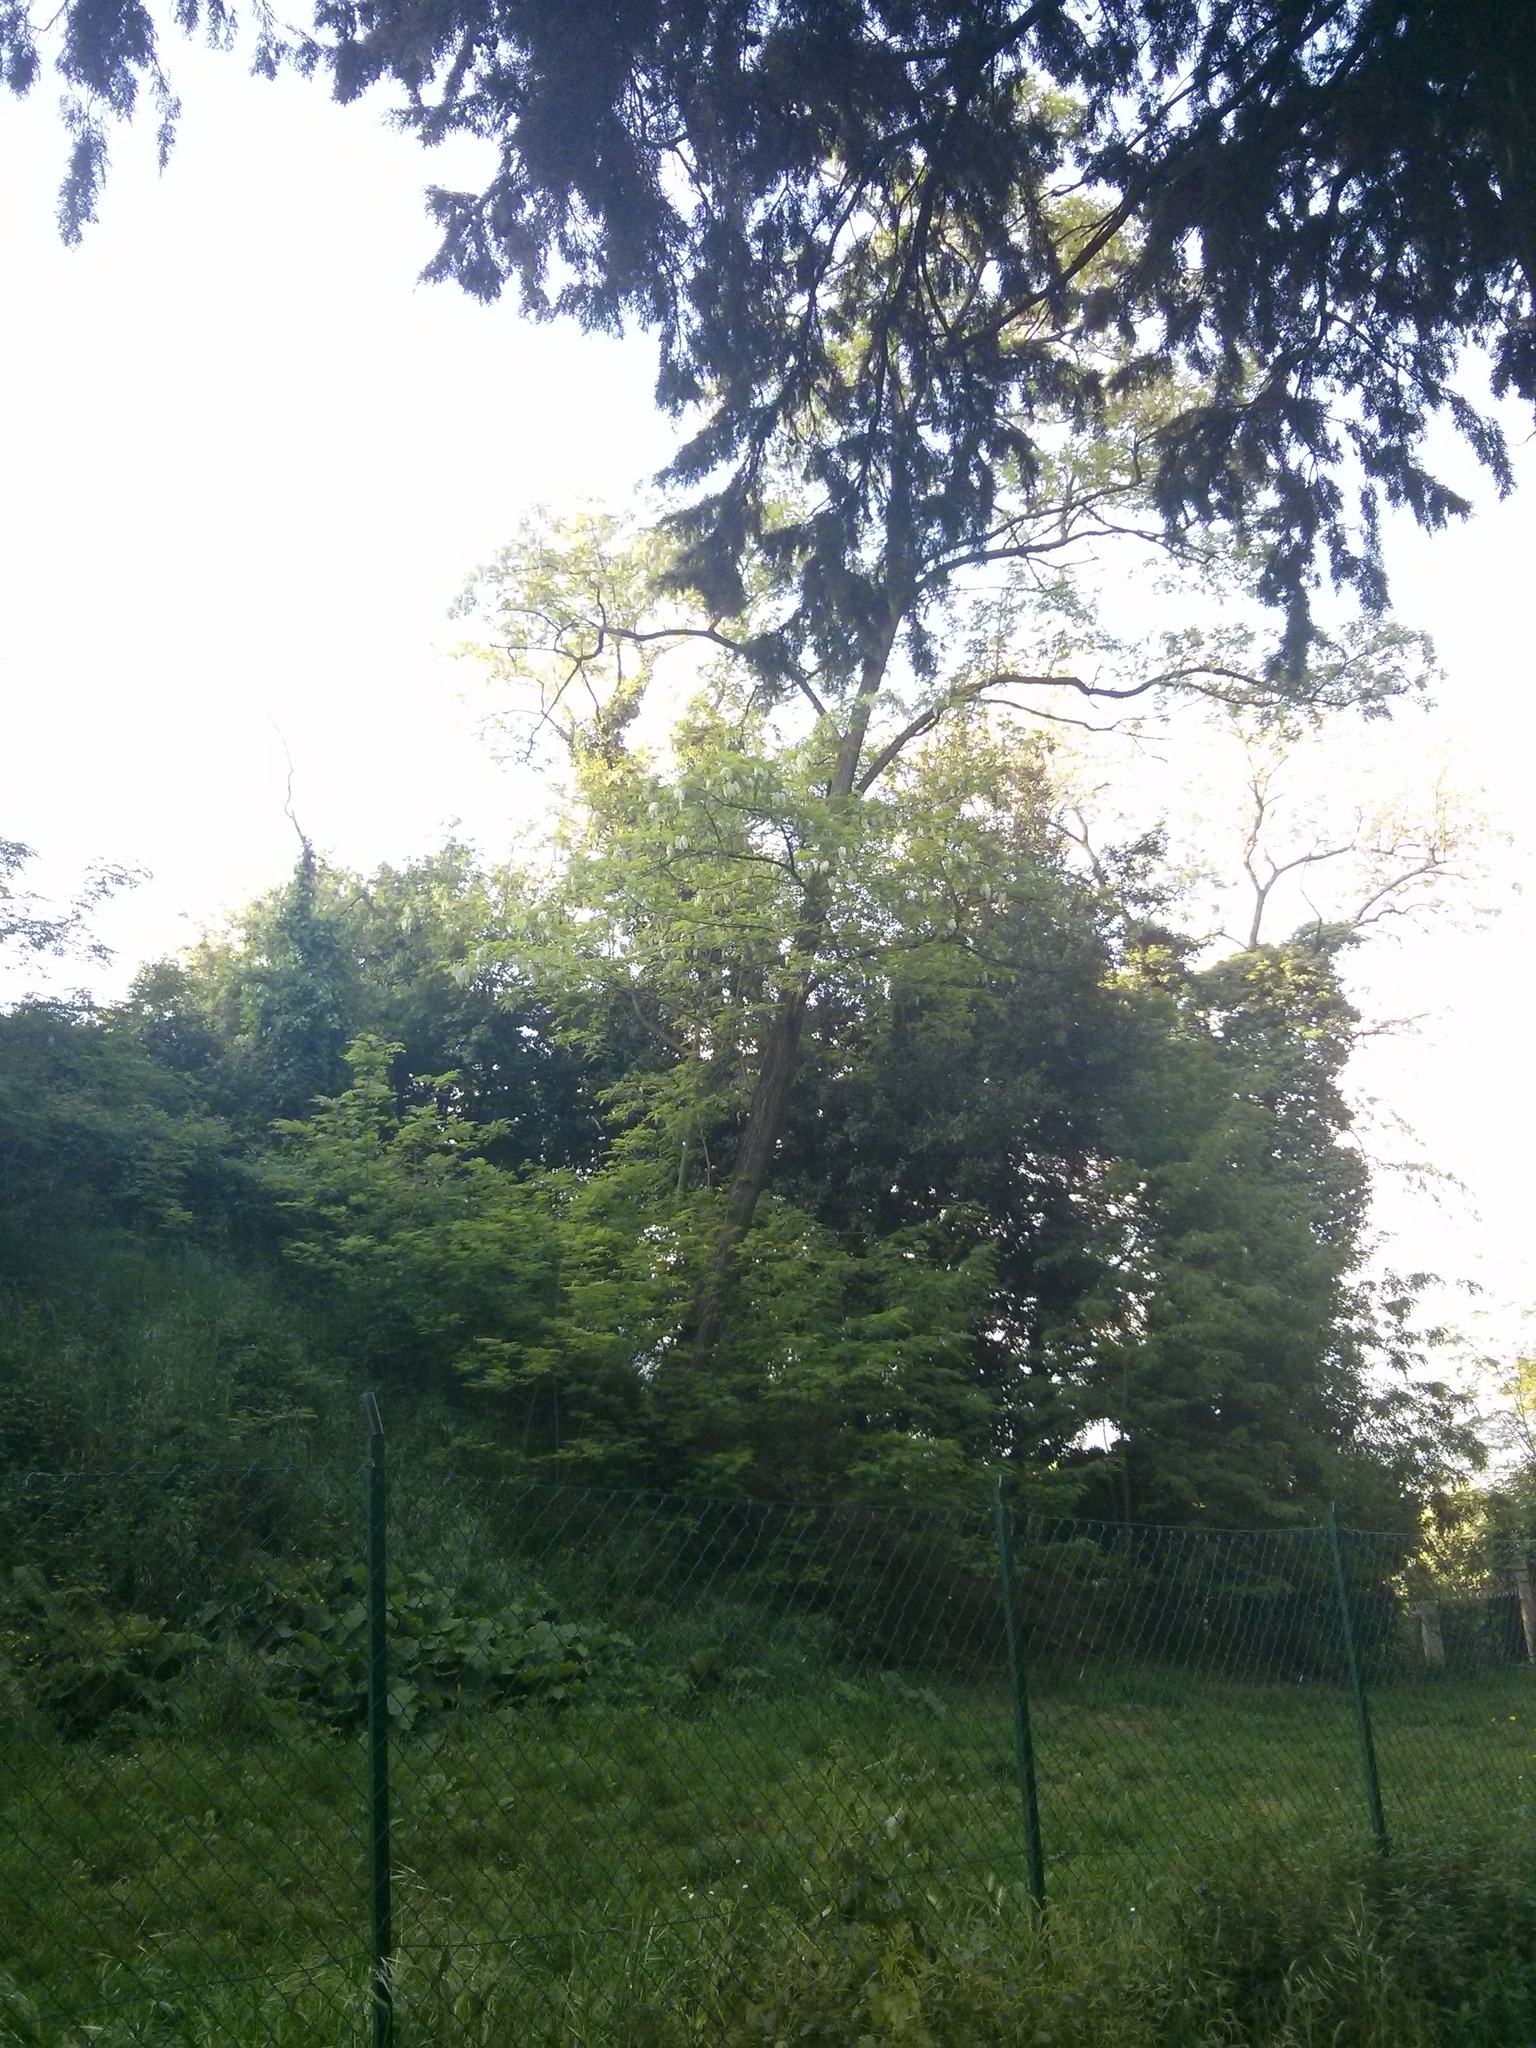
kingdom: Plantae
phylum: Tracheophyta
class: Magnoliopsida
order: Fabales
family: Fabaceae
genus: Robinia
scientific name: Robinia pseudoacacia
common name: Black locust
